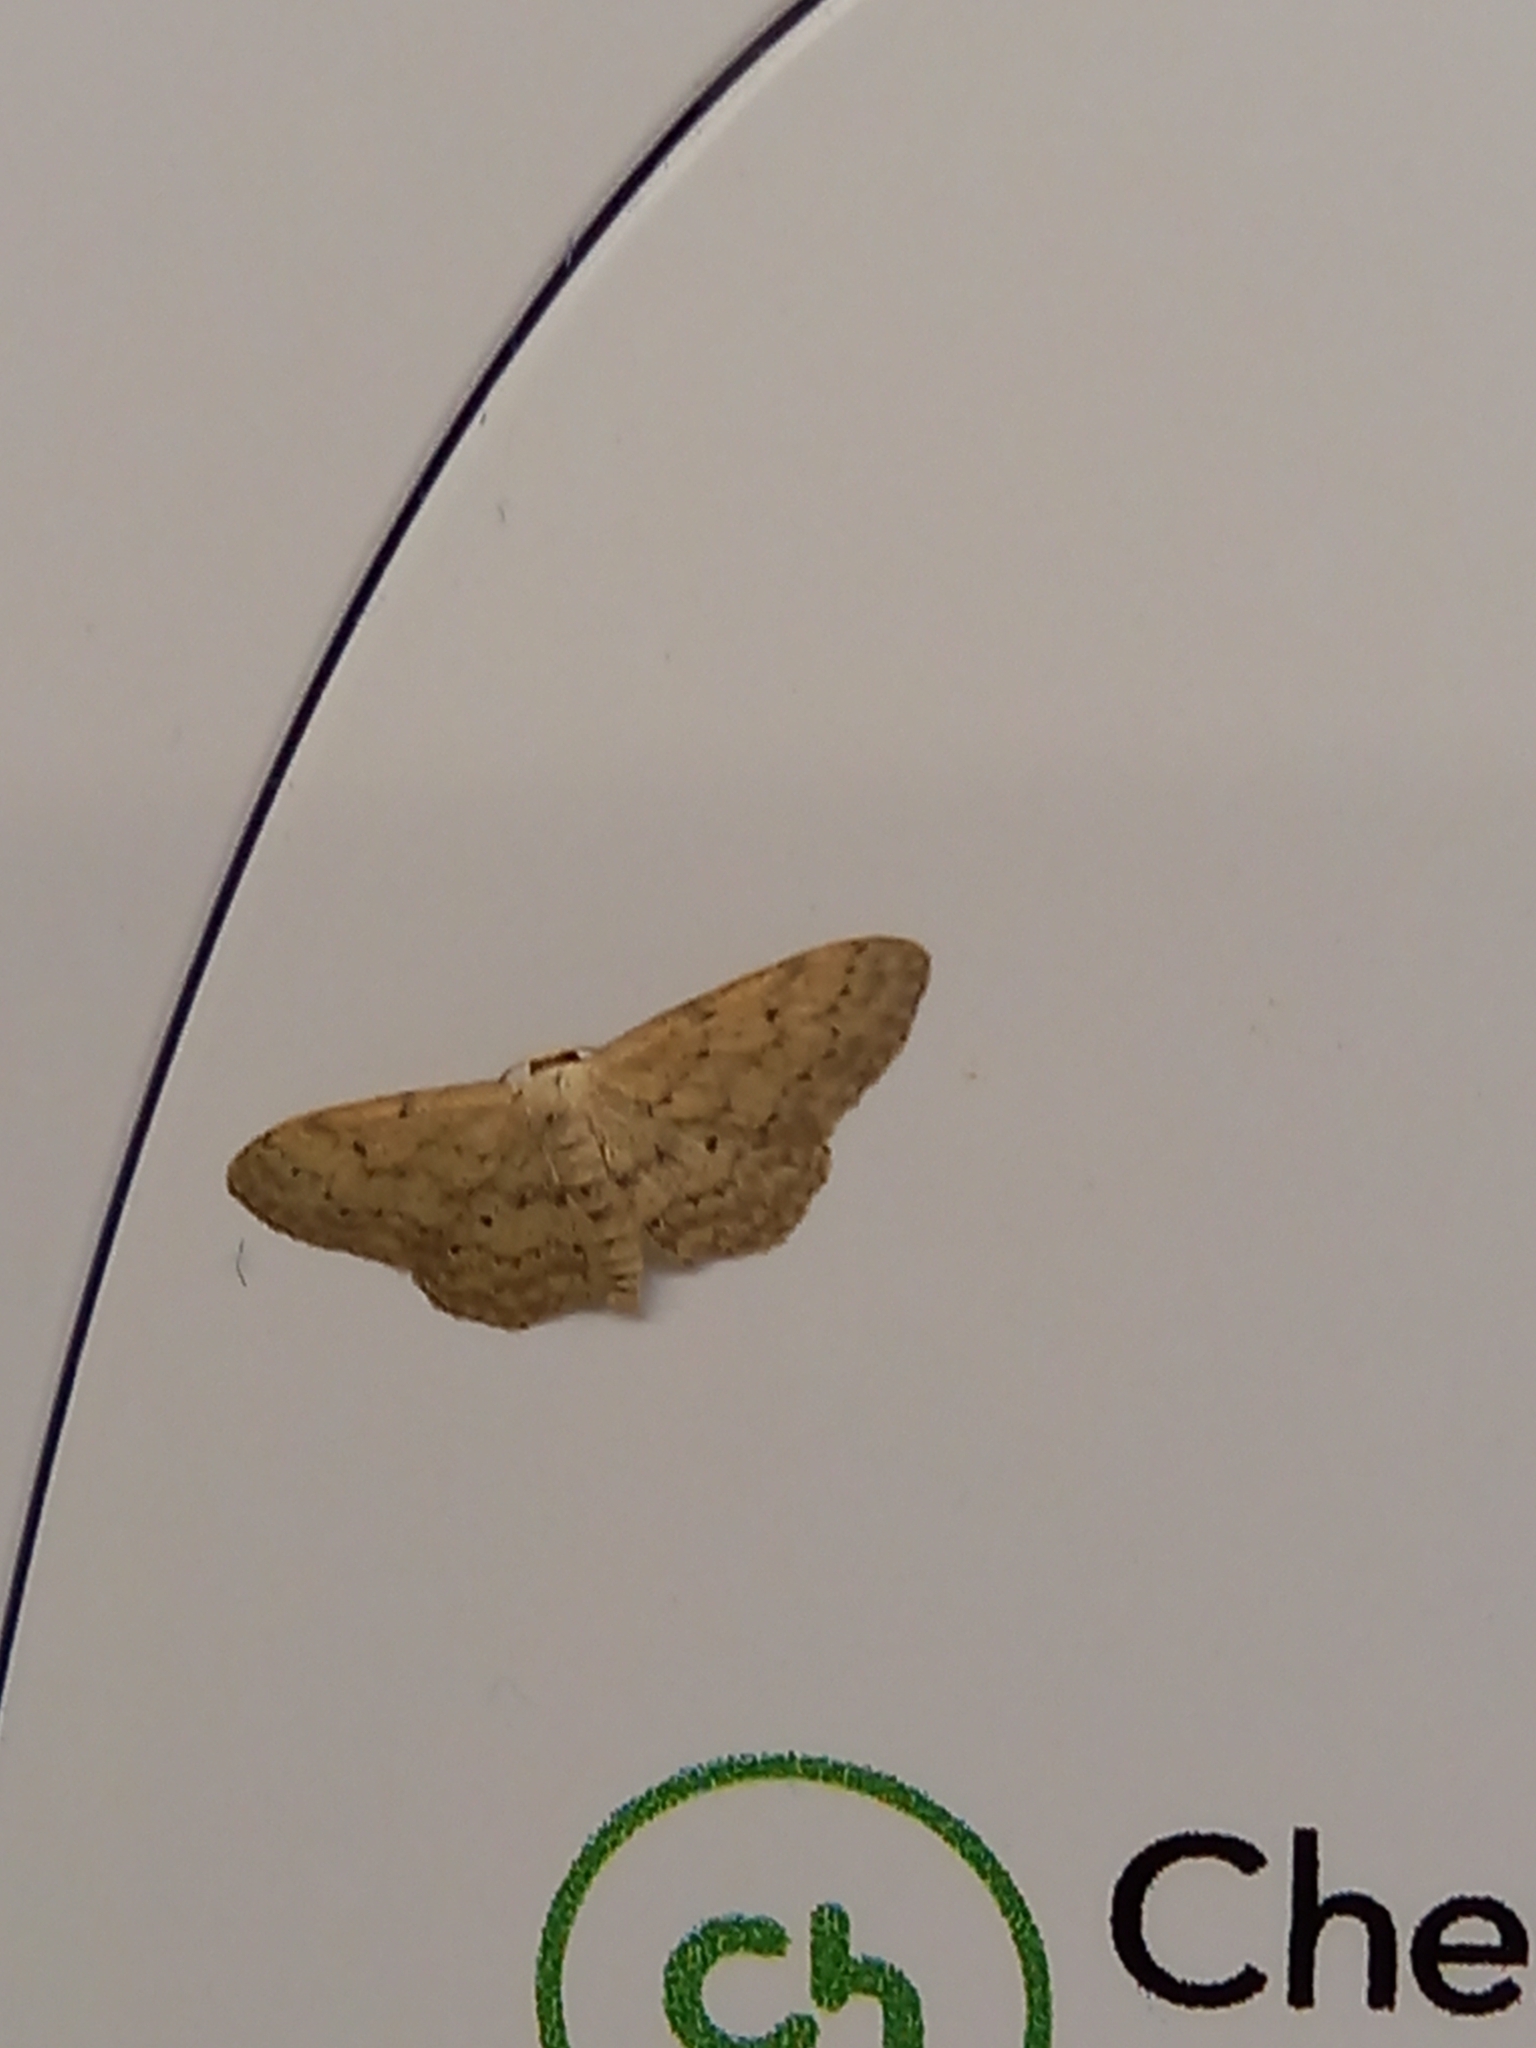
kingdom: Animalia
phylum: Arthropoda
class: Insecta
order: Lepidoptera
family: Geometridae
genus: Idaea
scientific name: Idaea seriata
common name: Small dusty wave
